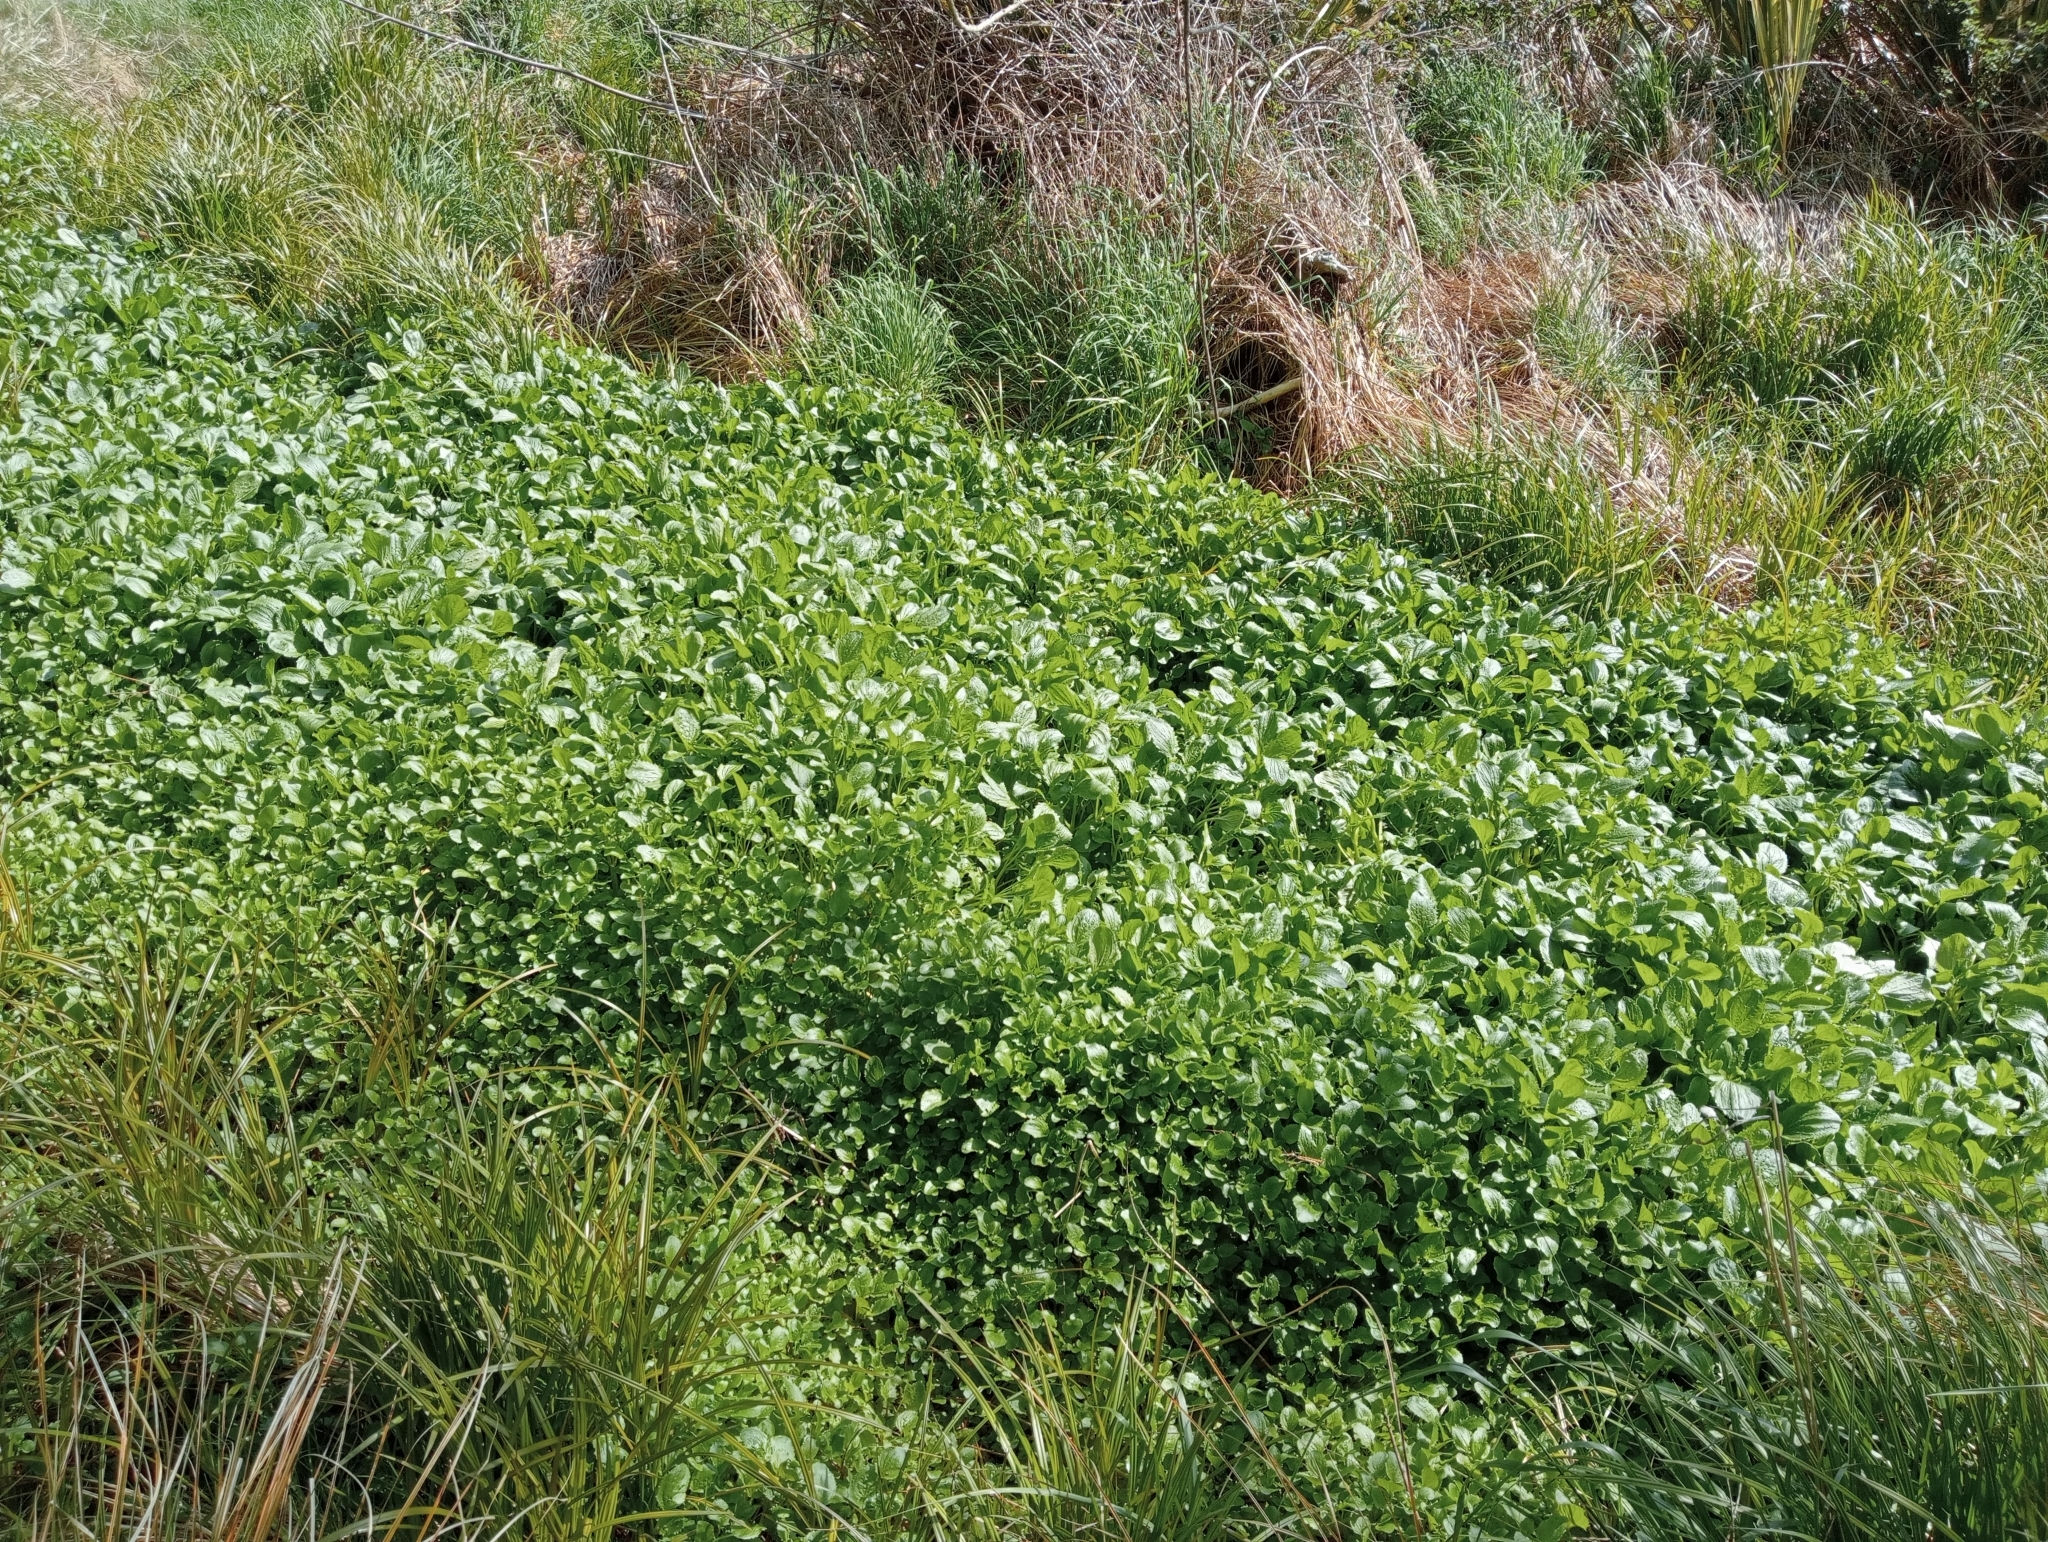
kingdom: Plantae
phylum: Tracheophyta
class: Magnoliopsida
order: Lamiales
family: Phrymaceae
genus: Erythranthe
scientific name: Erythranthe guttata
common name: Monkeyflower
